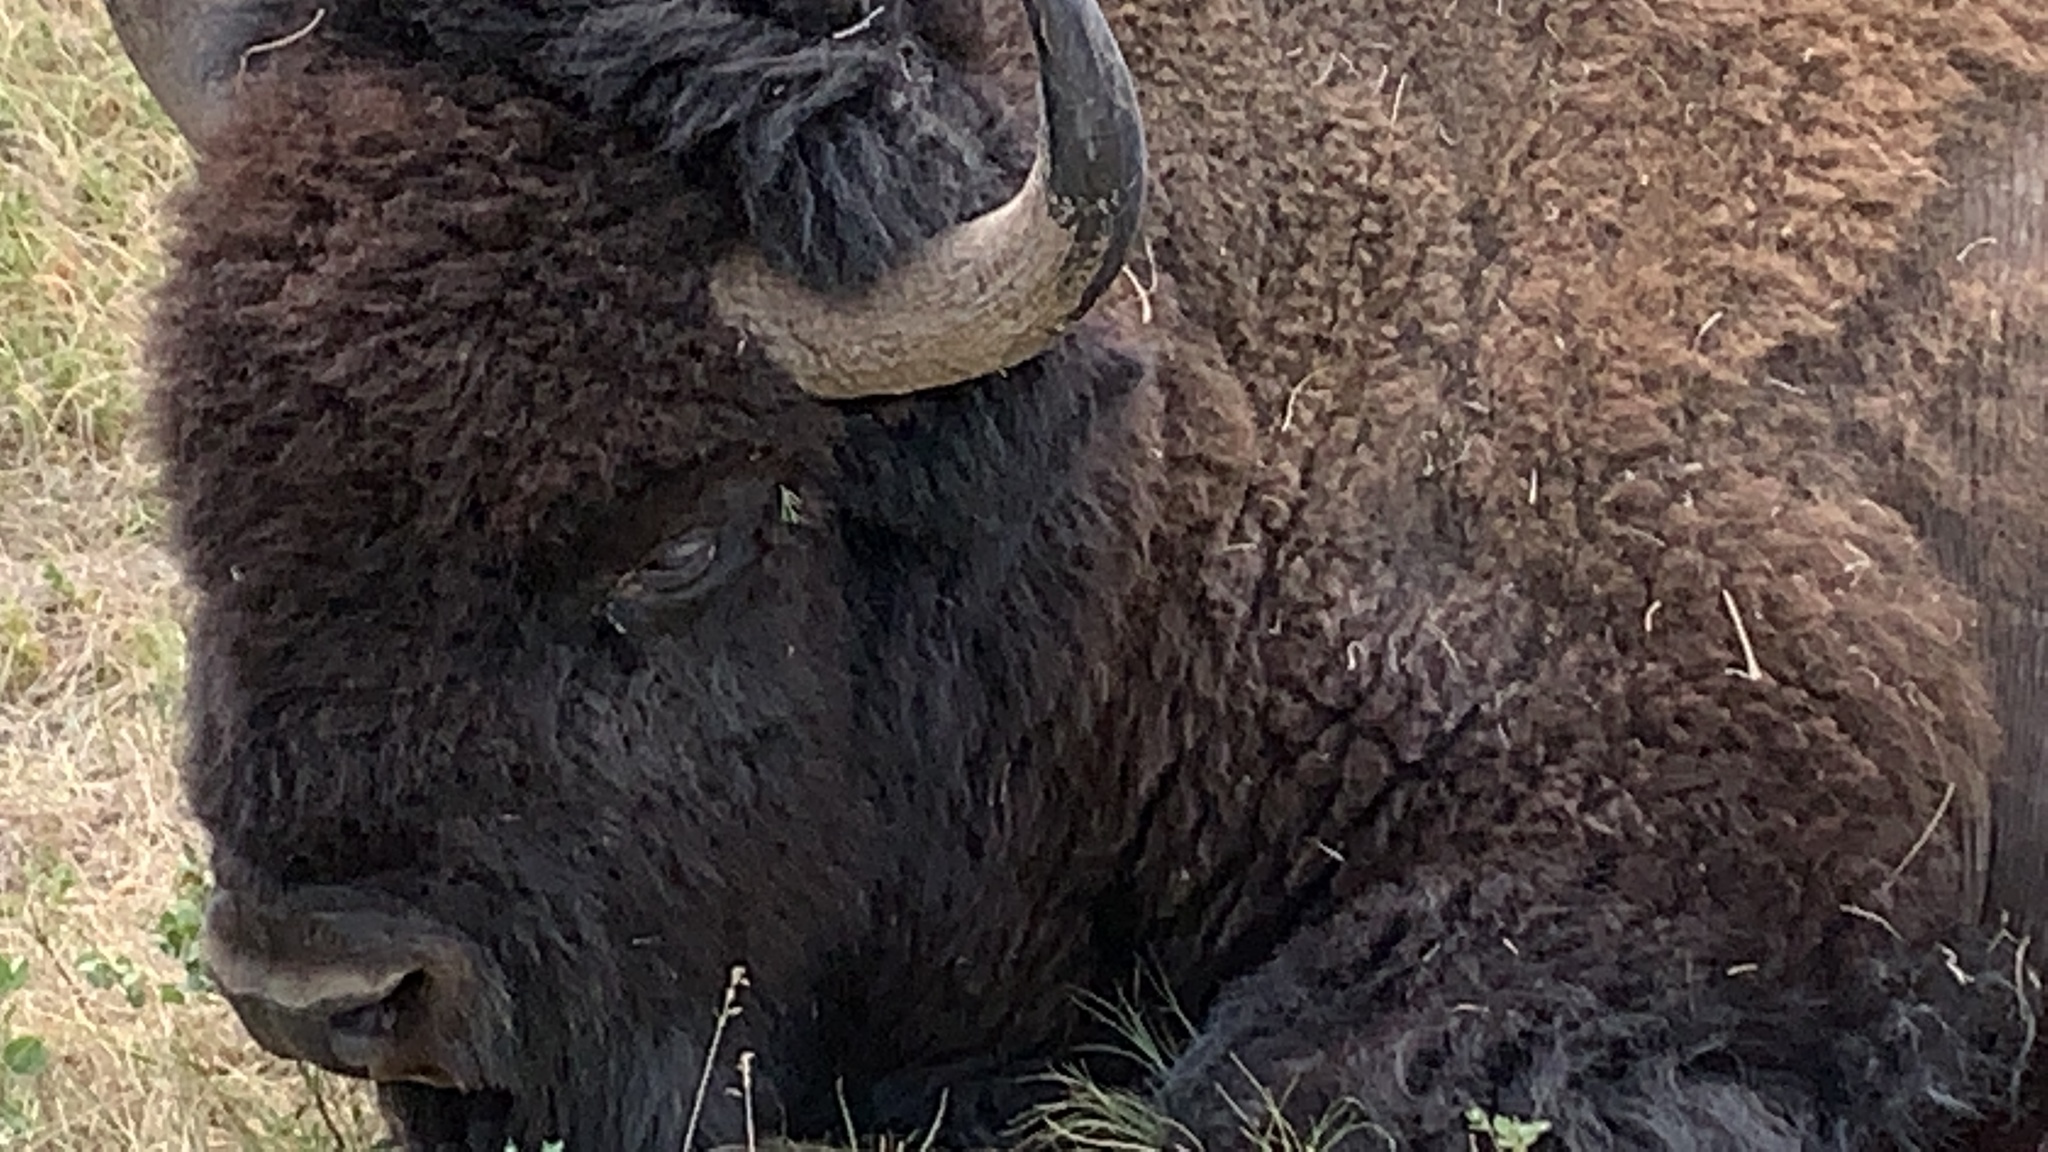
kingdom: Animalia
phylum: Chordata
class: Mammalia
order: Artiodactyla
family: Bovidae
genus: Bison
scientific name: Bison bison
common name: American bison
